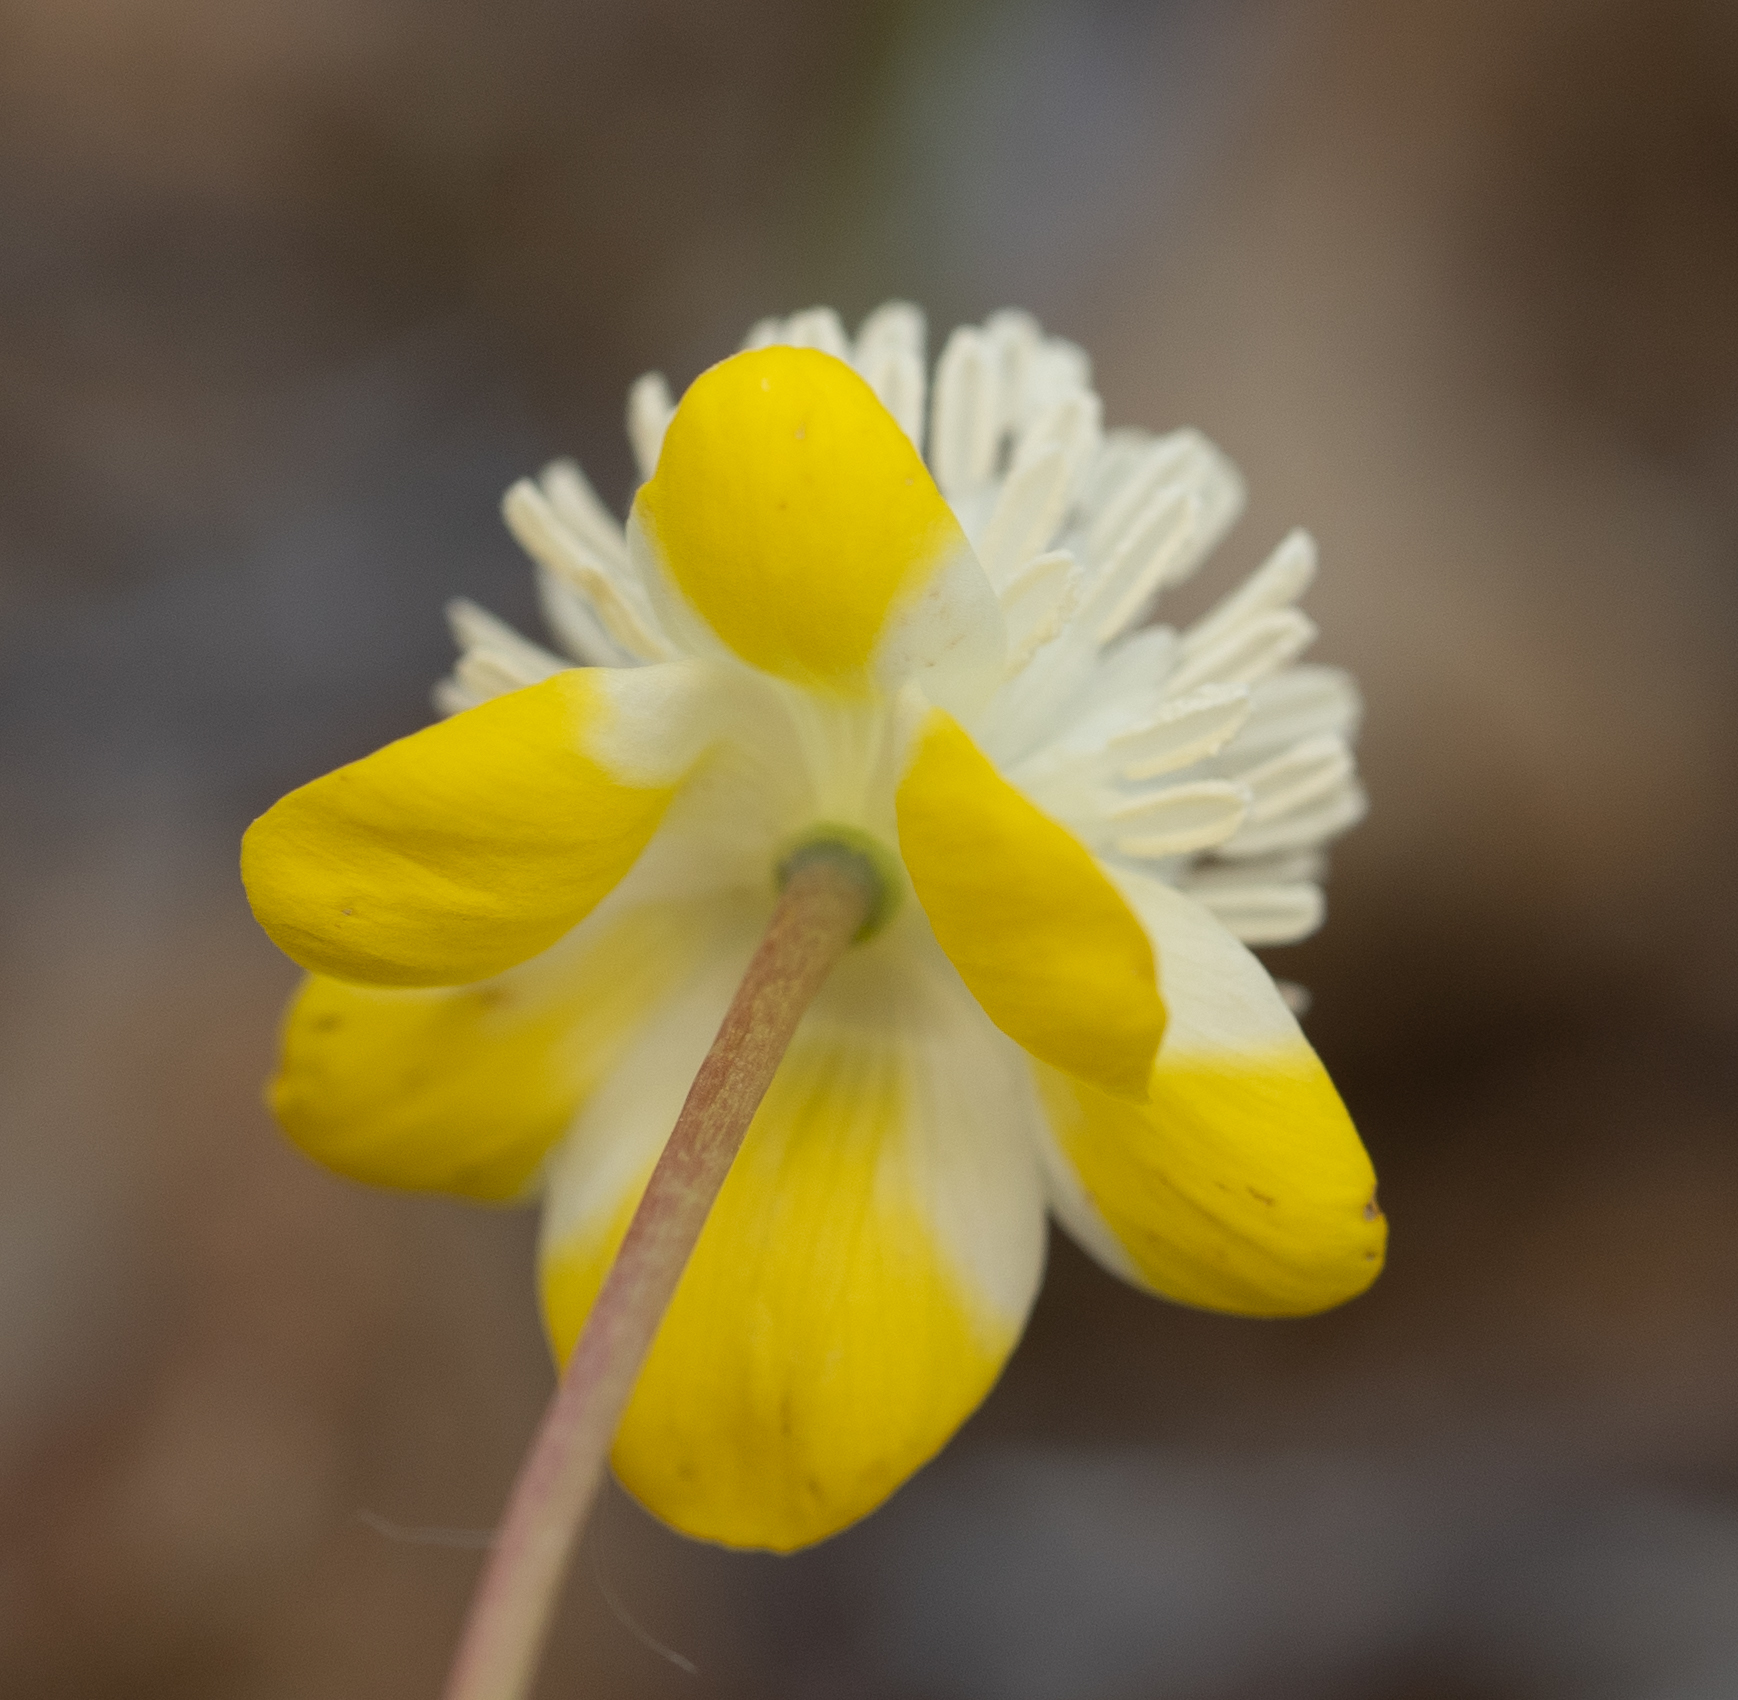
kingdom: Plantae
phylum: Tracheophyta
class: Magnoliopsida
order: Ranunculales
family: Papaveraceae
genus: Platystemon
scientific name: Platystemon californicus
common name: Cream-cups
